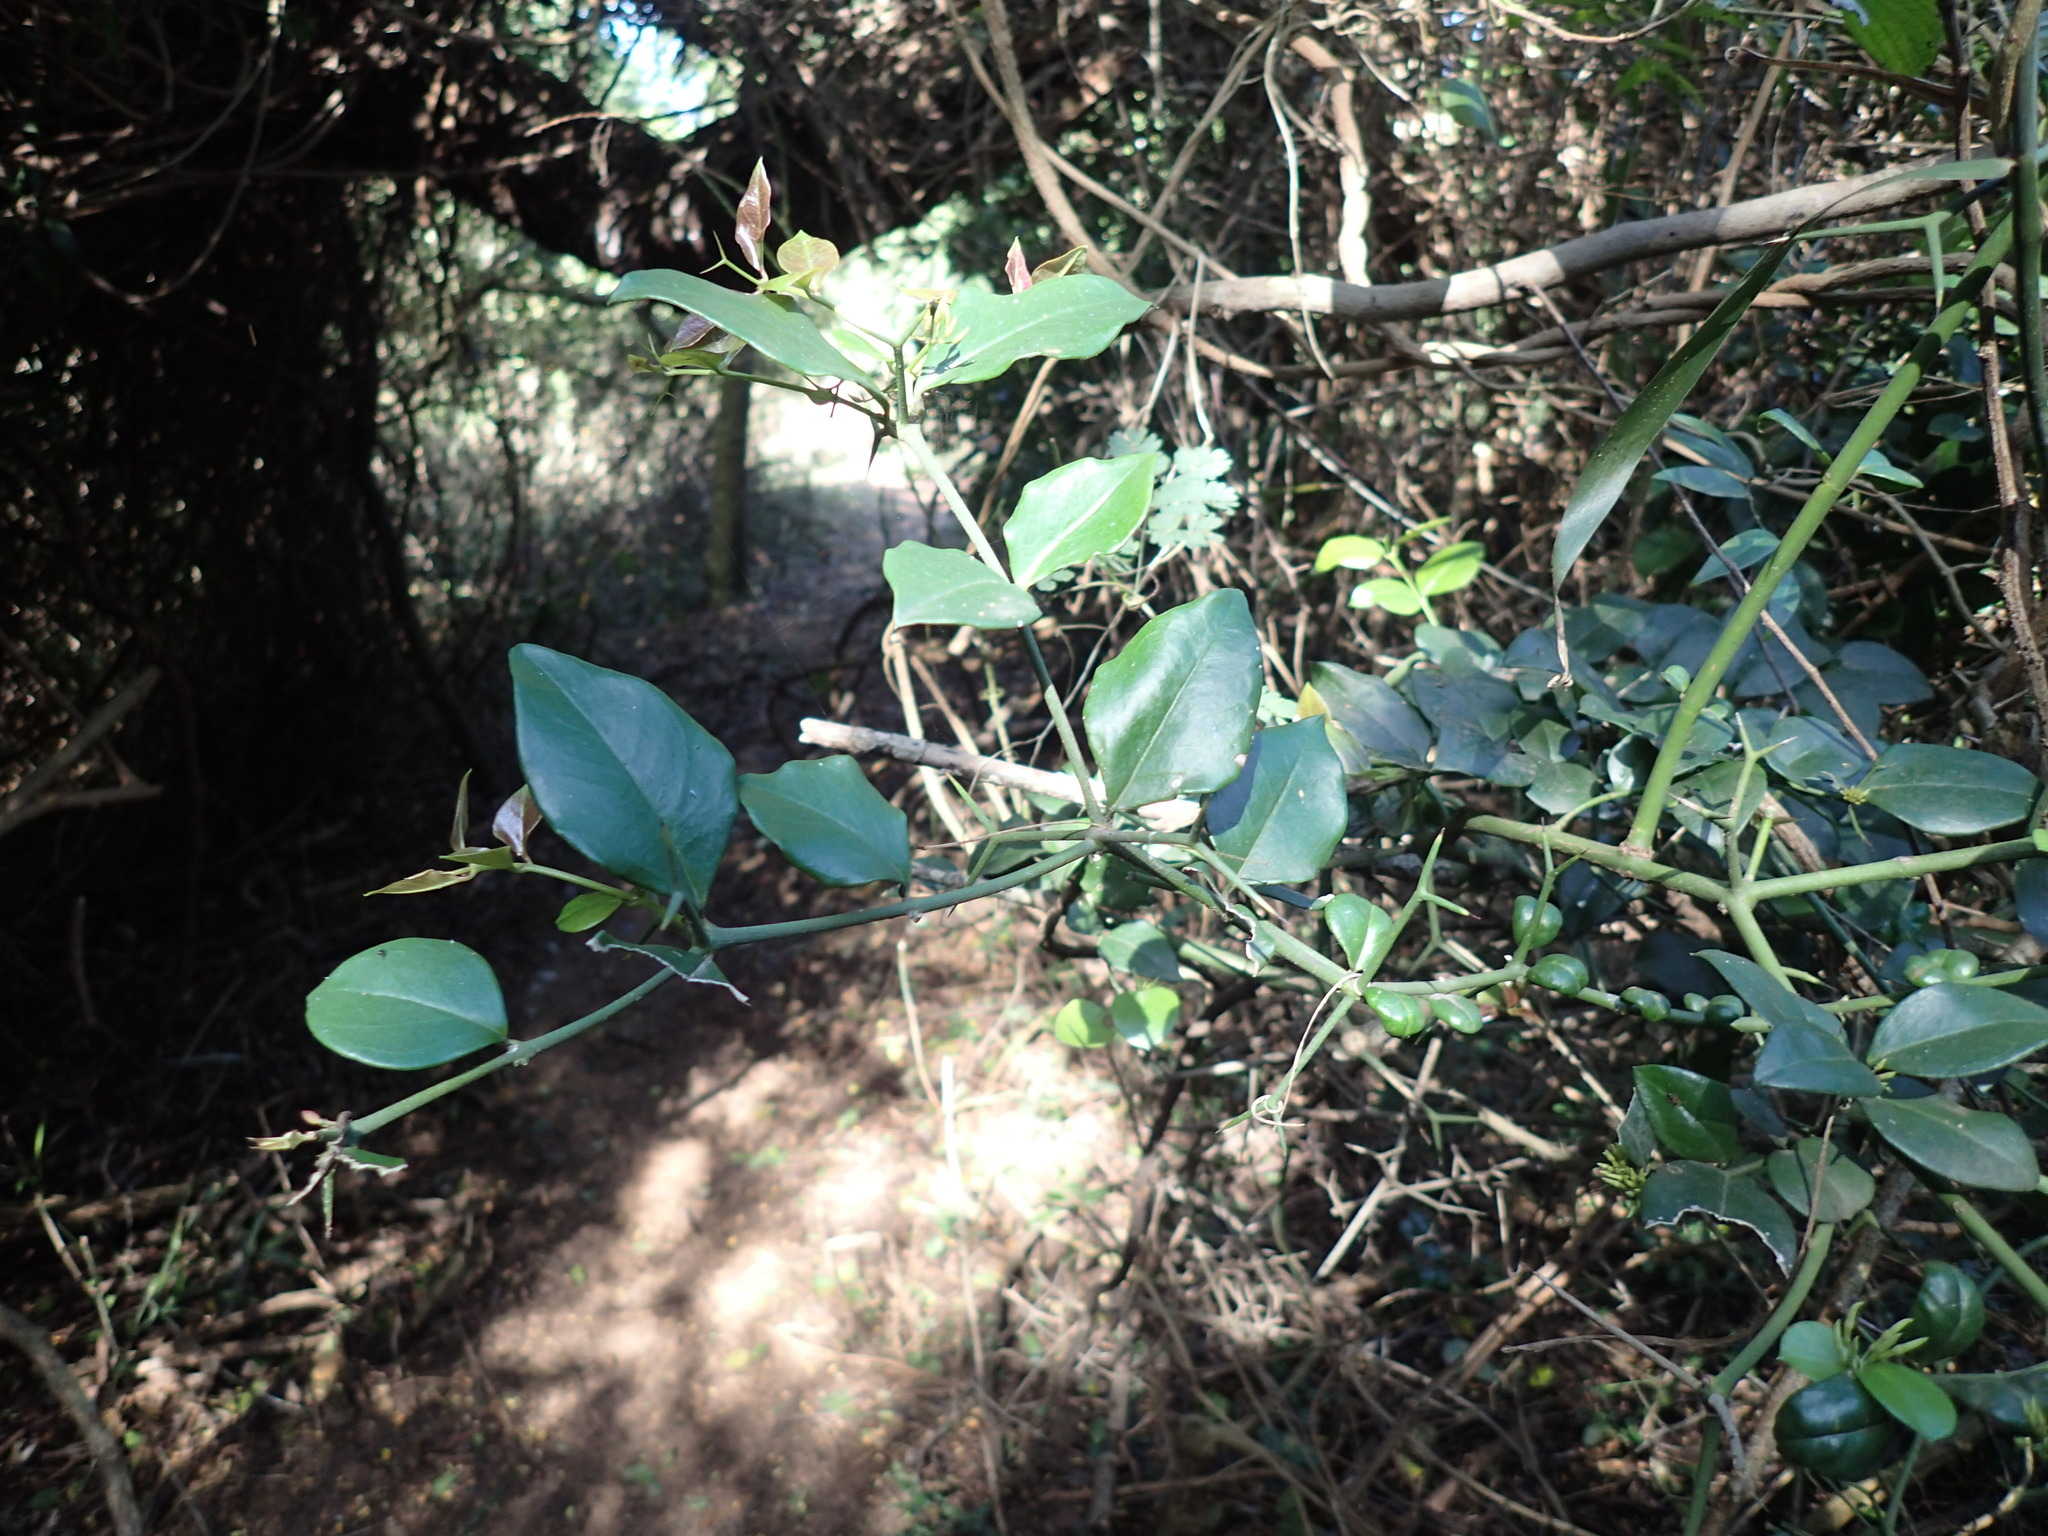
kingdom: Plantae
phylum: Tracheophyta
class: Magnoliopsida
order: Gentianales
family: Apocynaceae
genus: Carissa
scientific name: Carissa bispinosa
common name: Forest num-num
